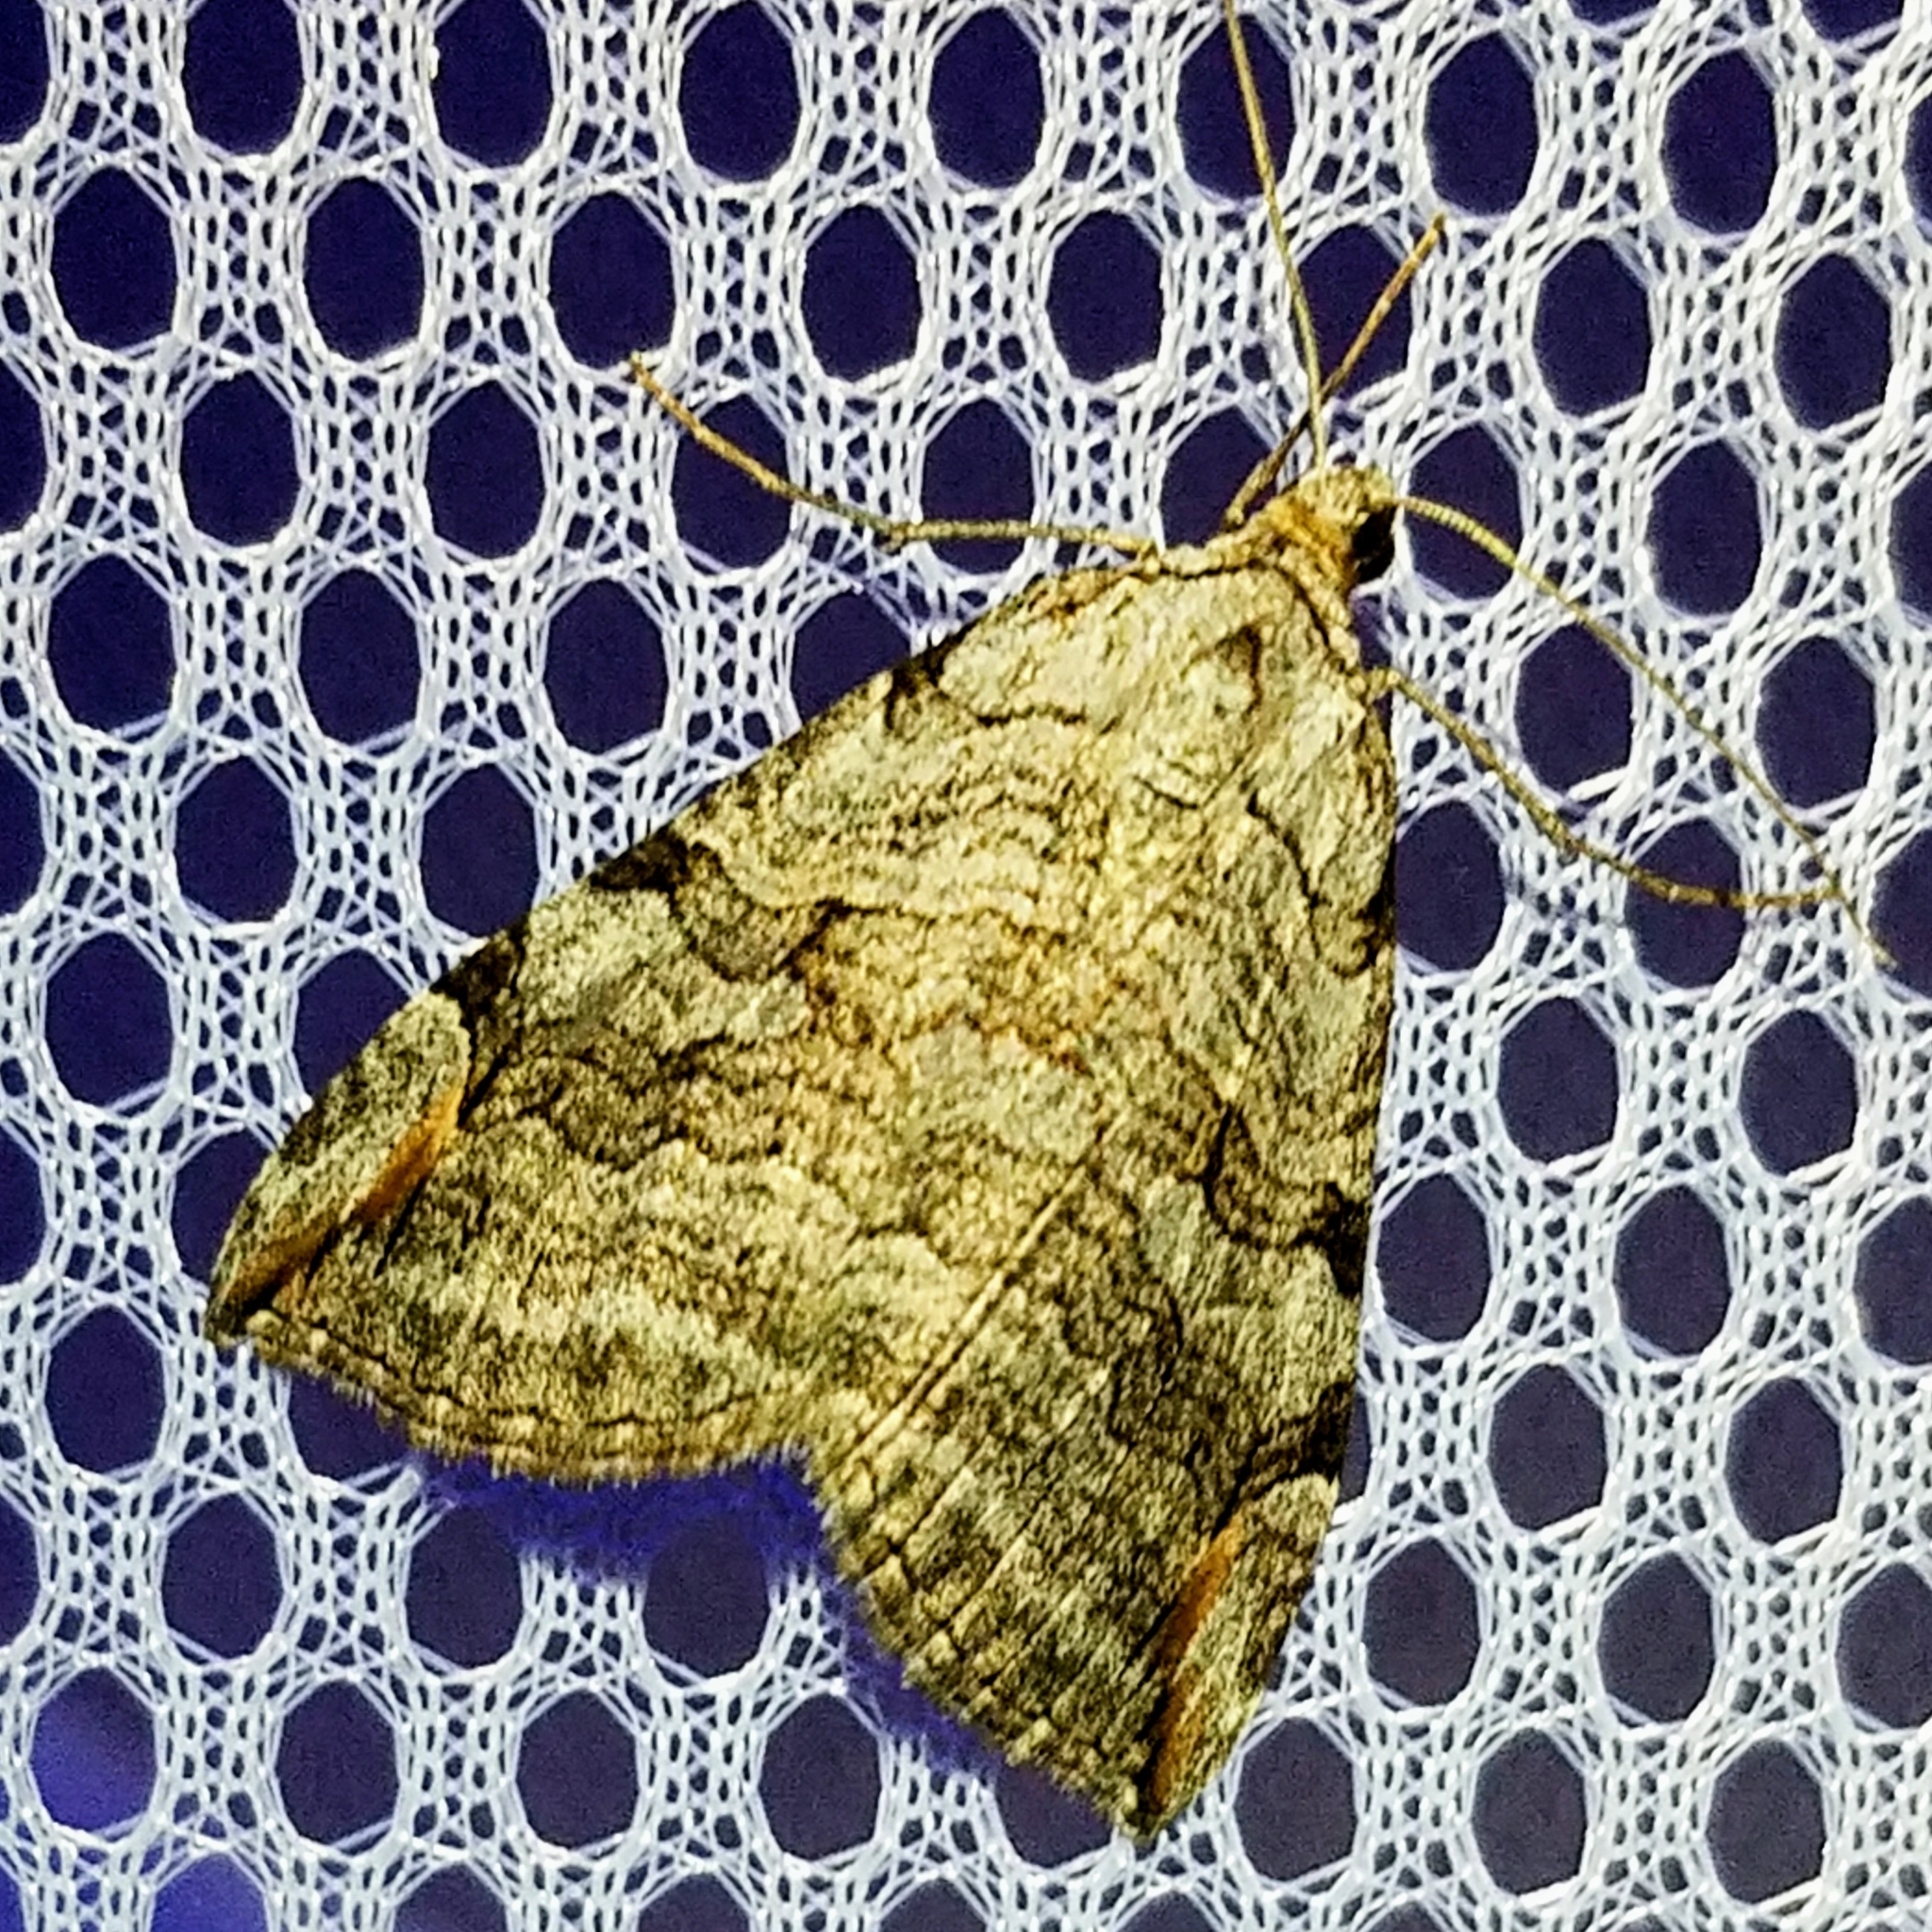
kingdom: Animalia
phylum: Arthropoda
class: Insecta
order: Lepidoptera
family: Geometridae
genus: Aplocera
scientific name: Aplocera plagiata
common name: Treble-bar
